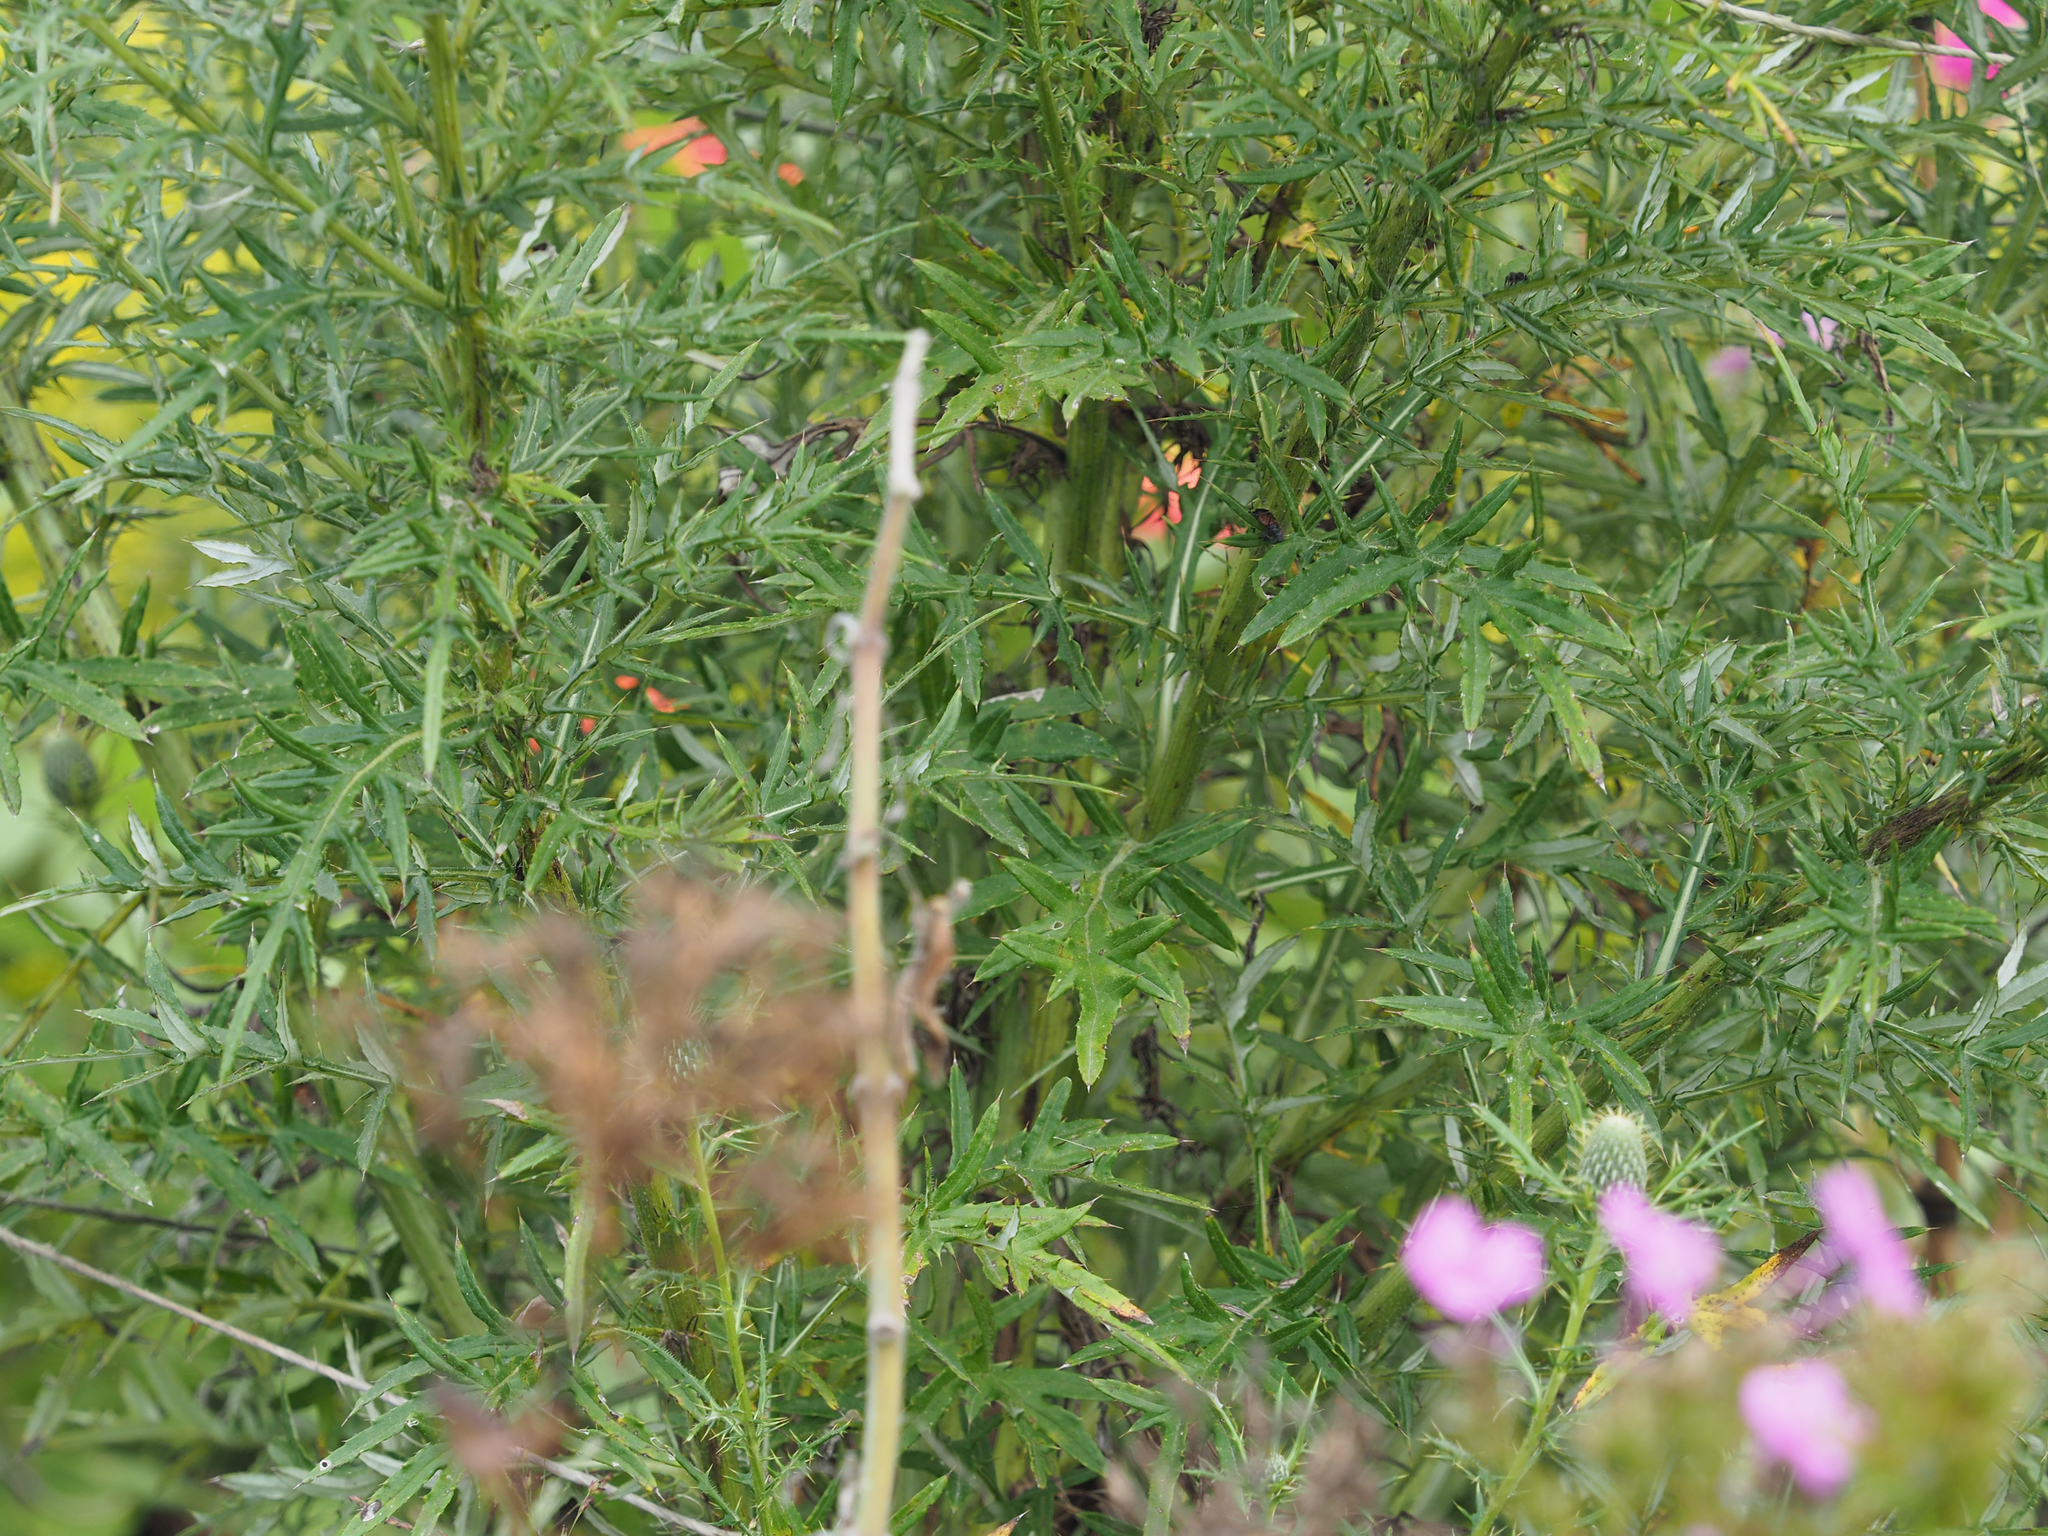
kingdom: Plantae
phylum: Tracheophyta
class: Magnoliopsida
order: Asterales
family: Asteraceae
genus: Cirsium
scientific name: Cirsium discolor
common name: Field thistle
